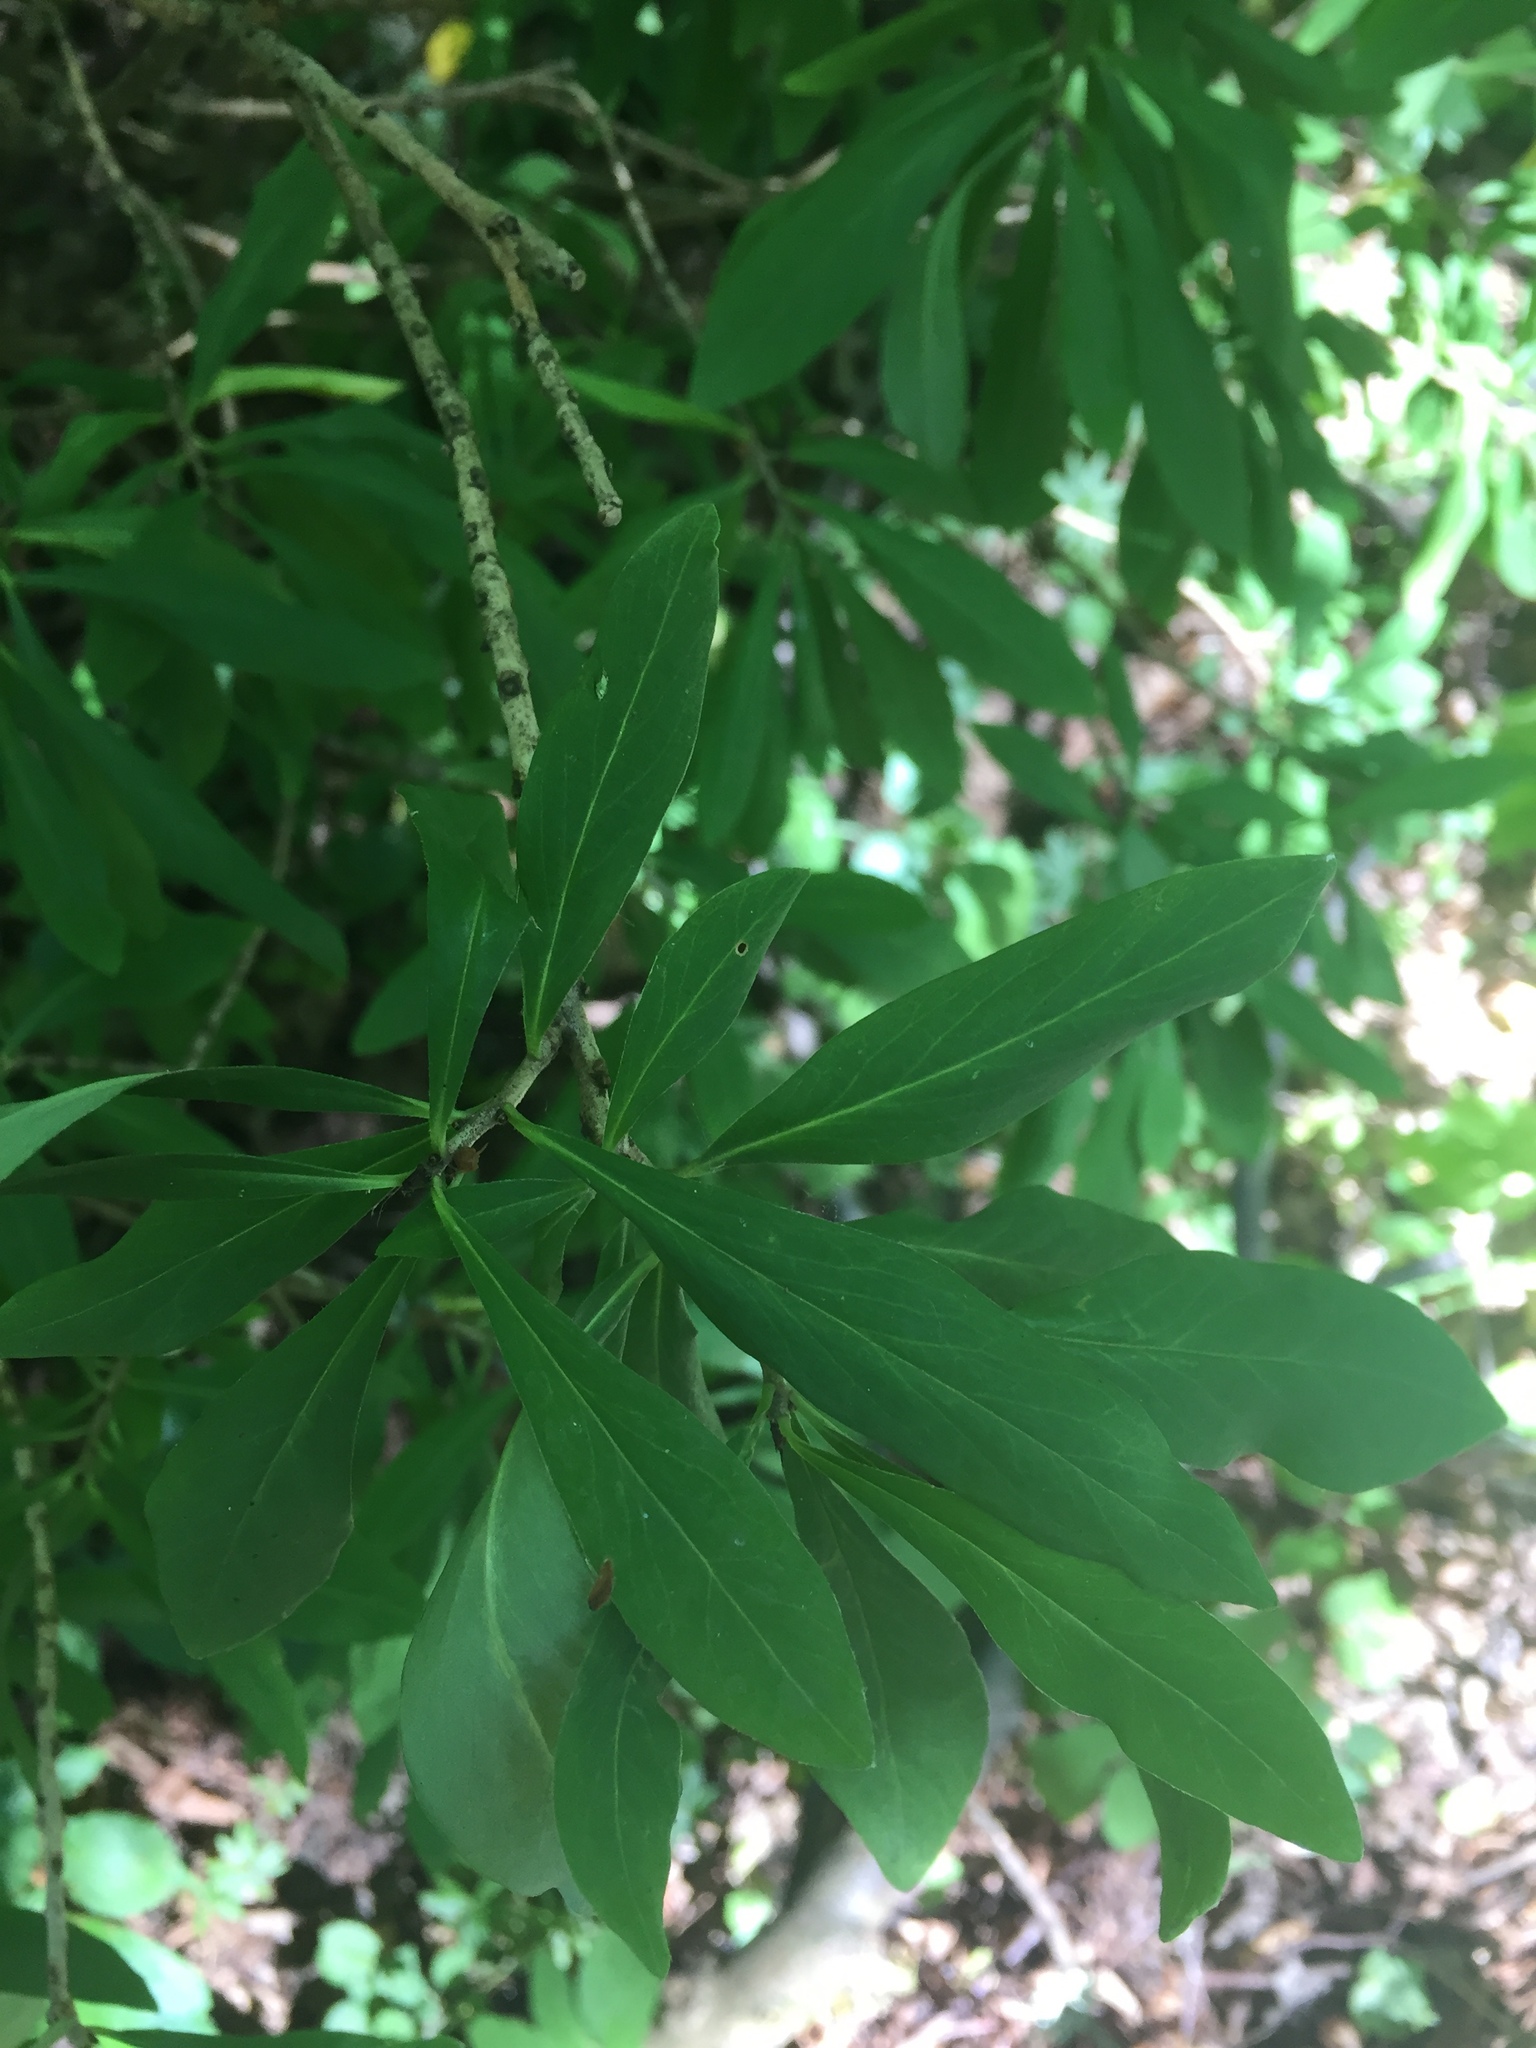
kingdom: Plantae
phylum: Tracheophyta
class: Magnoliopsida
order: Malvales
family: Thymelaeaceae
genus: Daphne
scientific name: Daphne mezereum
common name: Mezereon
